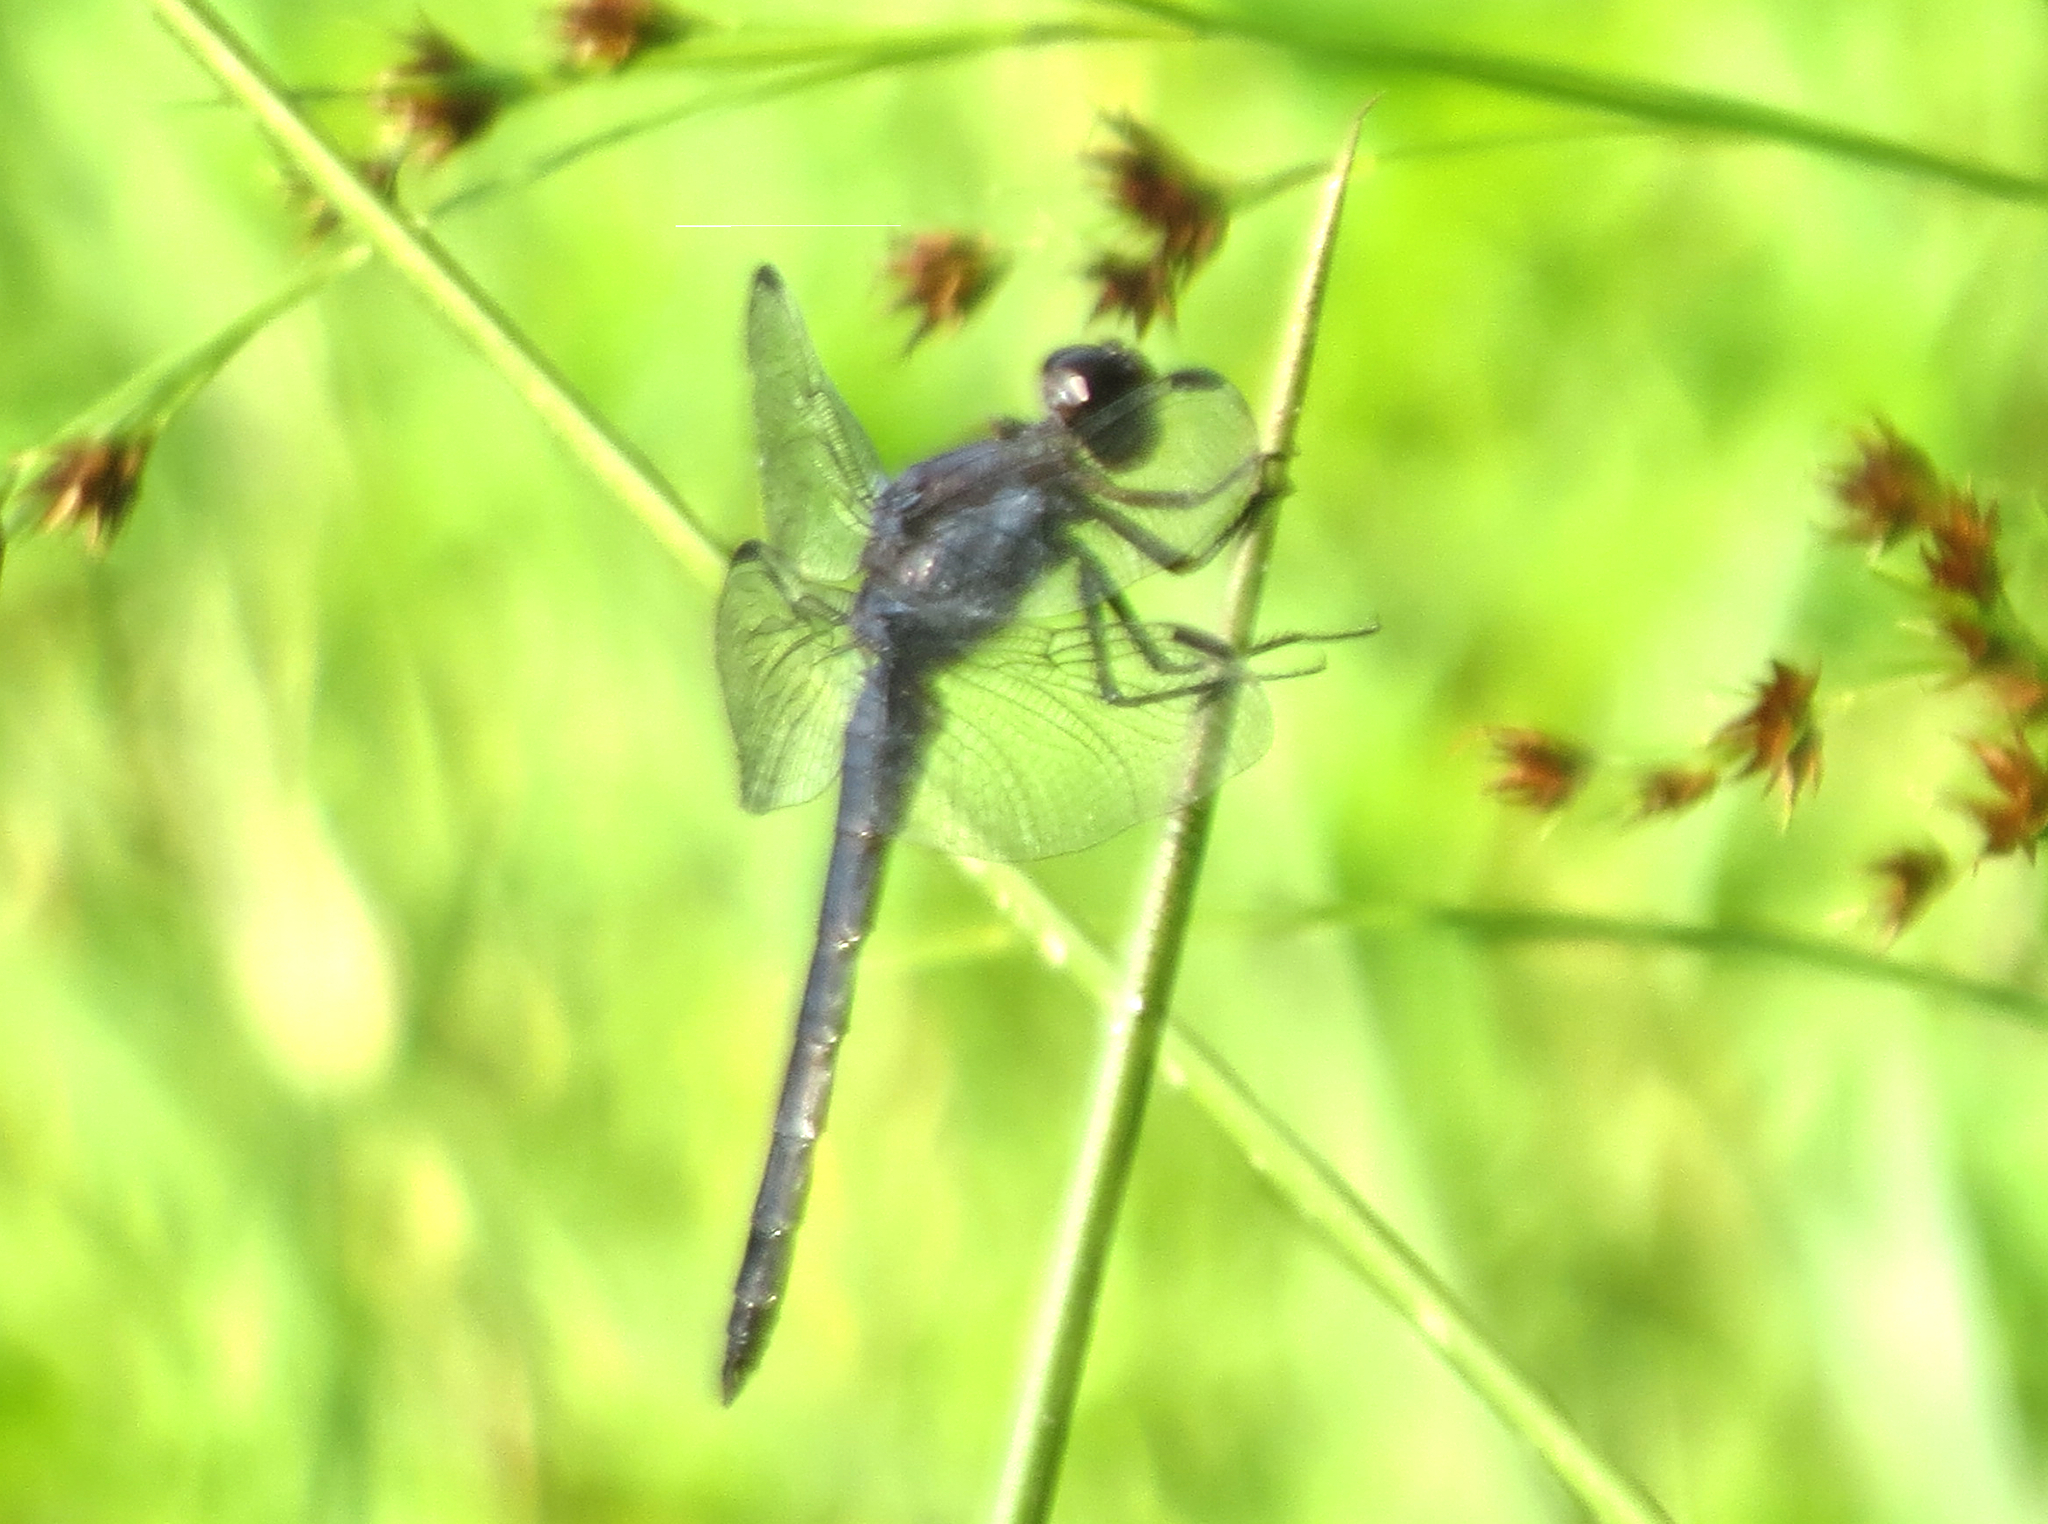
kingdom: Animalia
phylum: Arthropoda
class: Insecta
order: Odonata
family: Libellulidae
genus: Libellula
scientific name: Libellula incesta
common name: Slaty skimmer
